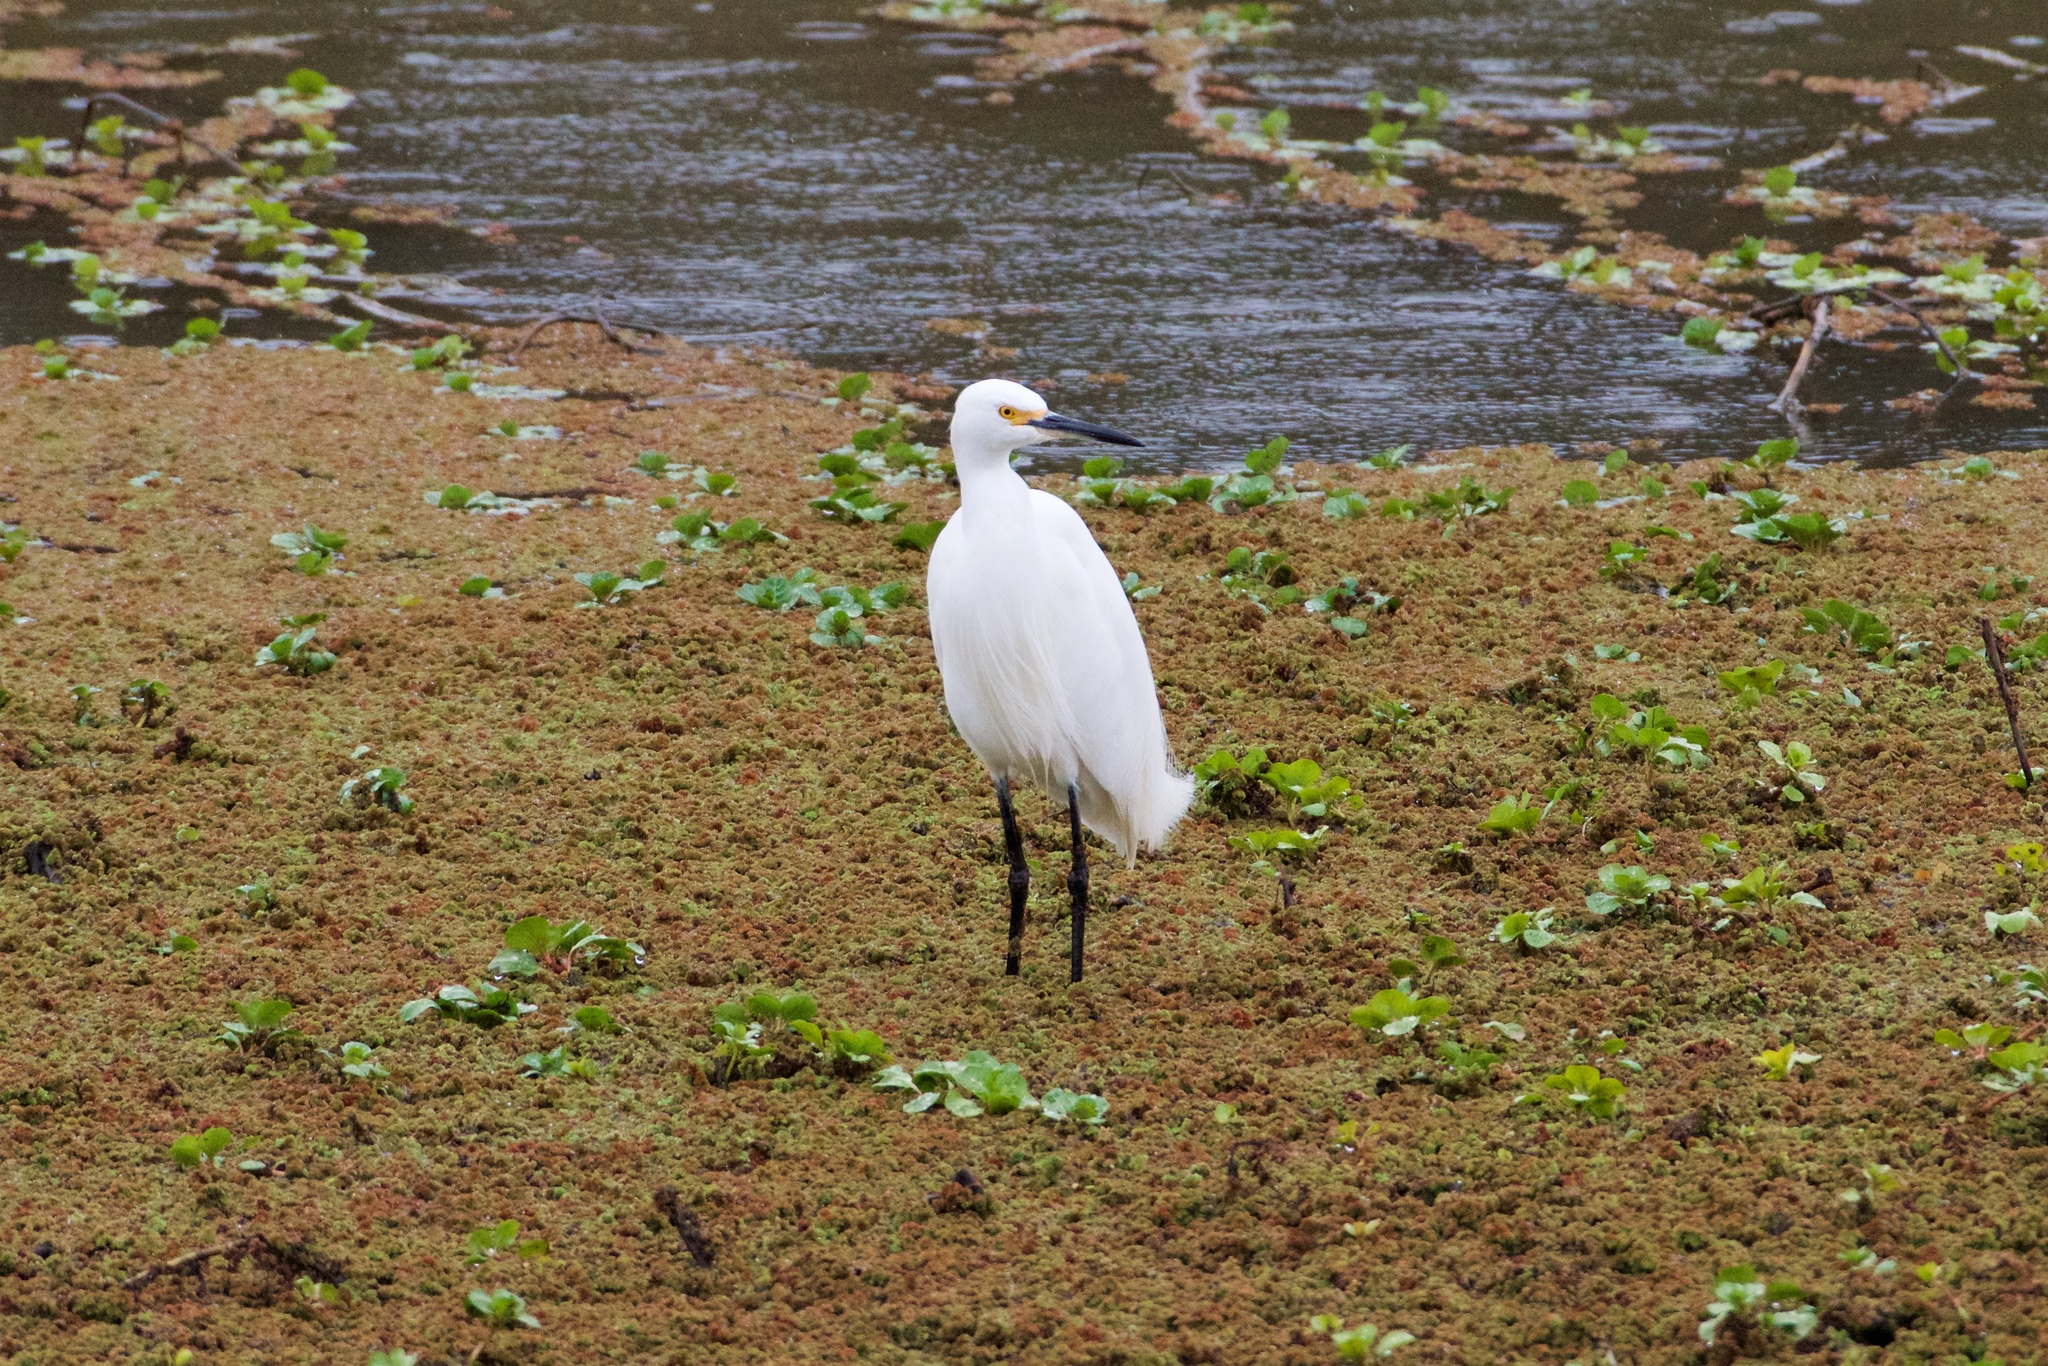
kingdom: Animalia
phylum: Chordata
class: Aves
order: Pelecaniformes
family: Ardeidae
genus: Egretta
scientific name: Egretta thula
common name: Snowy egret
